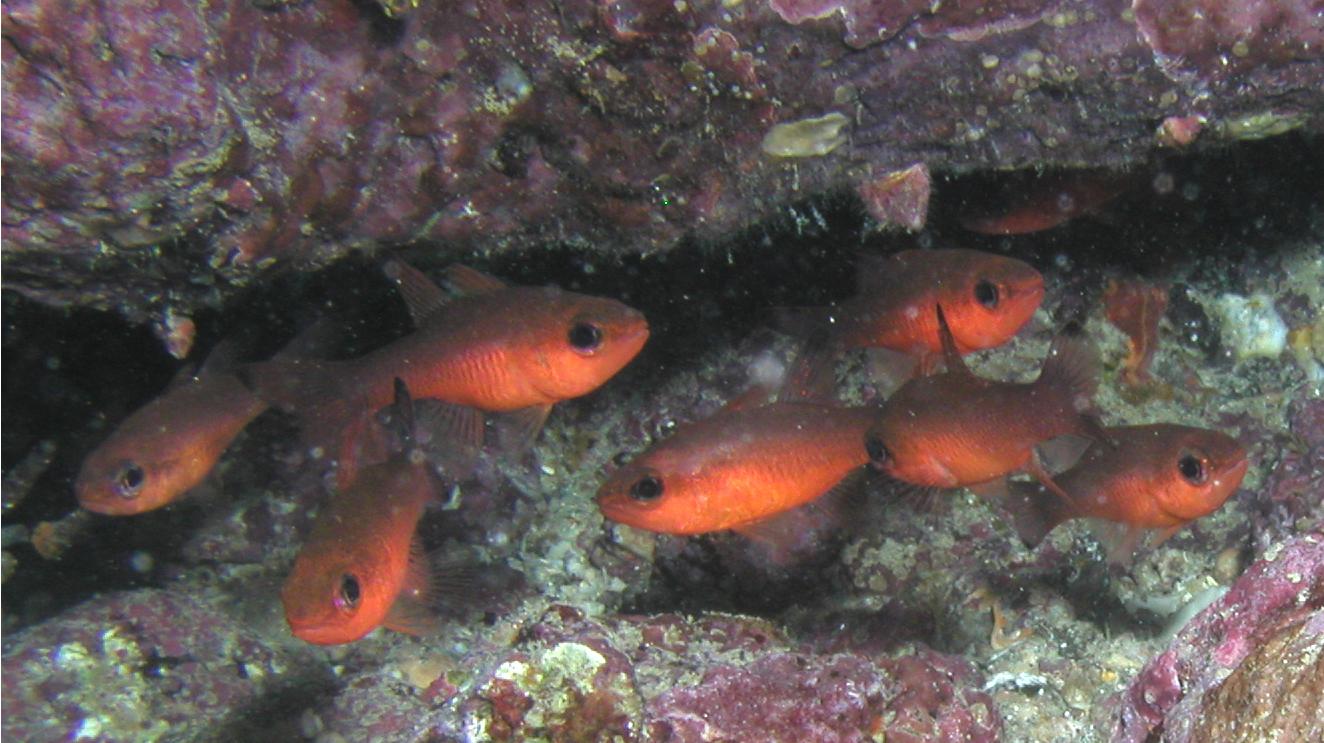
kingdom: Animalia
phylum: Chordata
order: Perciformes
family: Apogonidae
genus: Apogon
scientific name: Apogon atradorsatus
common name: Blacktip cardinalfish
